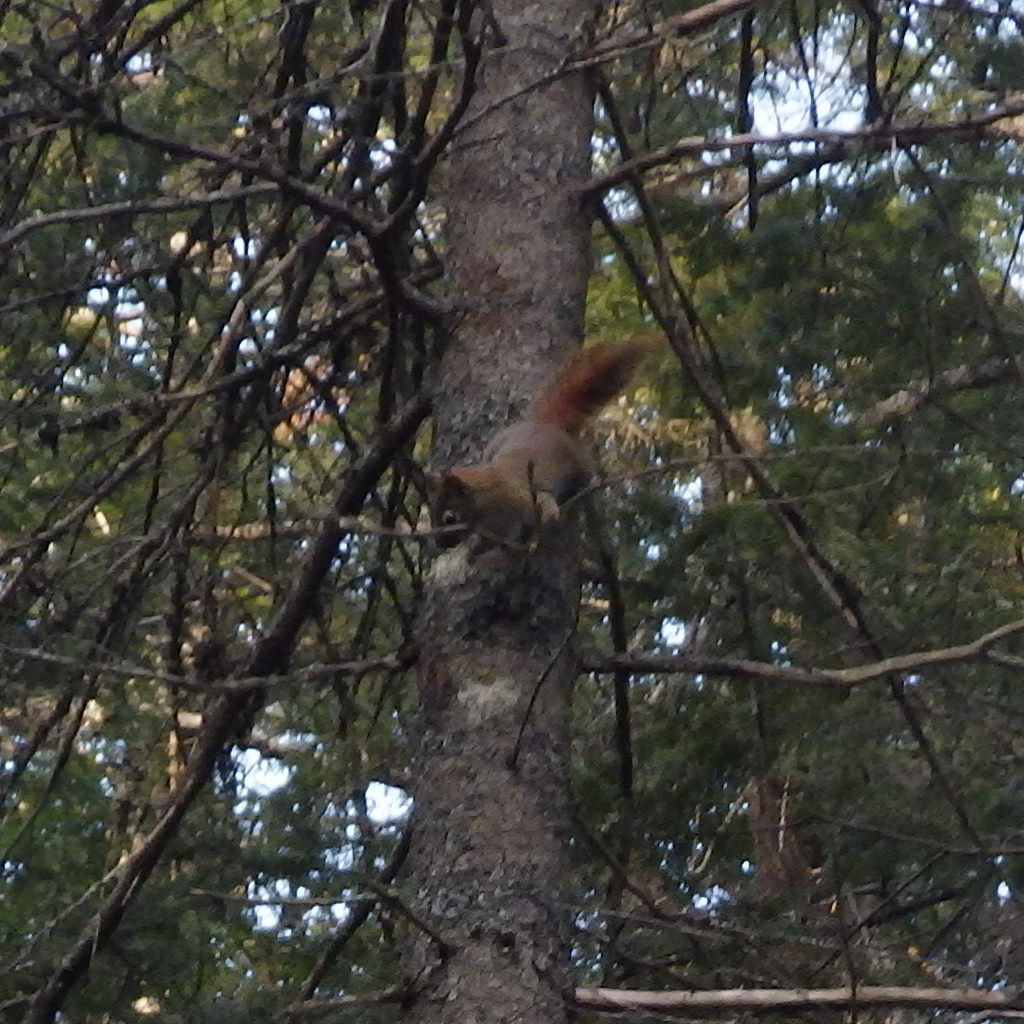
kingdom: Animalia
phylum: Chordata
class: Mammalia
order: Rodentia
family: Sciuridae
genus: Tamiasciurus
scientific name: Tamiasciurus hudsonicus
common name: Red squirrel
